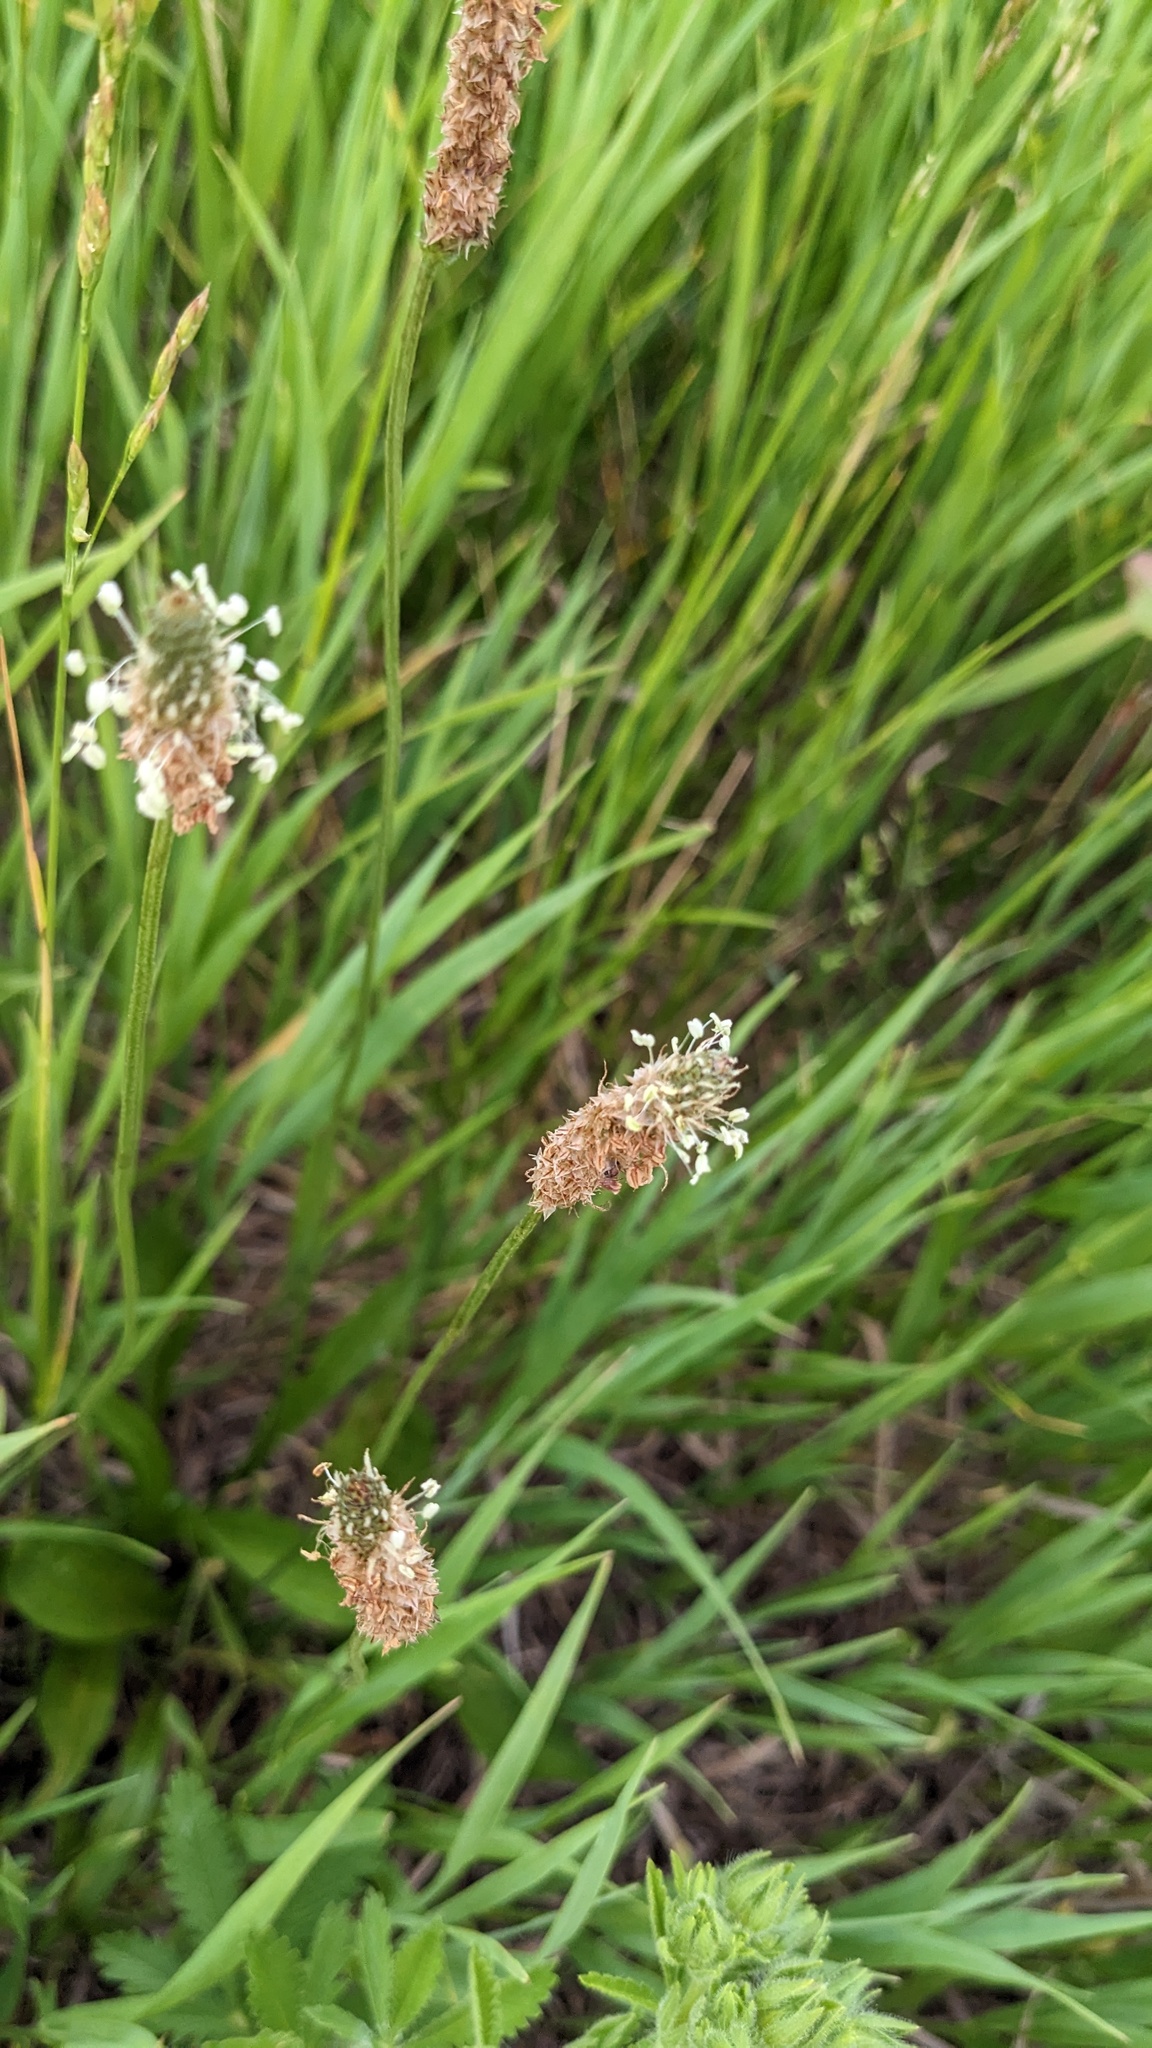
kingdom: Plantae
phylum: Tracheophyta
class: Magnoliopsida
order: Lamiales
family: Plantaginaceae
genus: Plantago
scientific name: Plantago lanceolata
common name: Ribwort plantain
